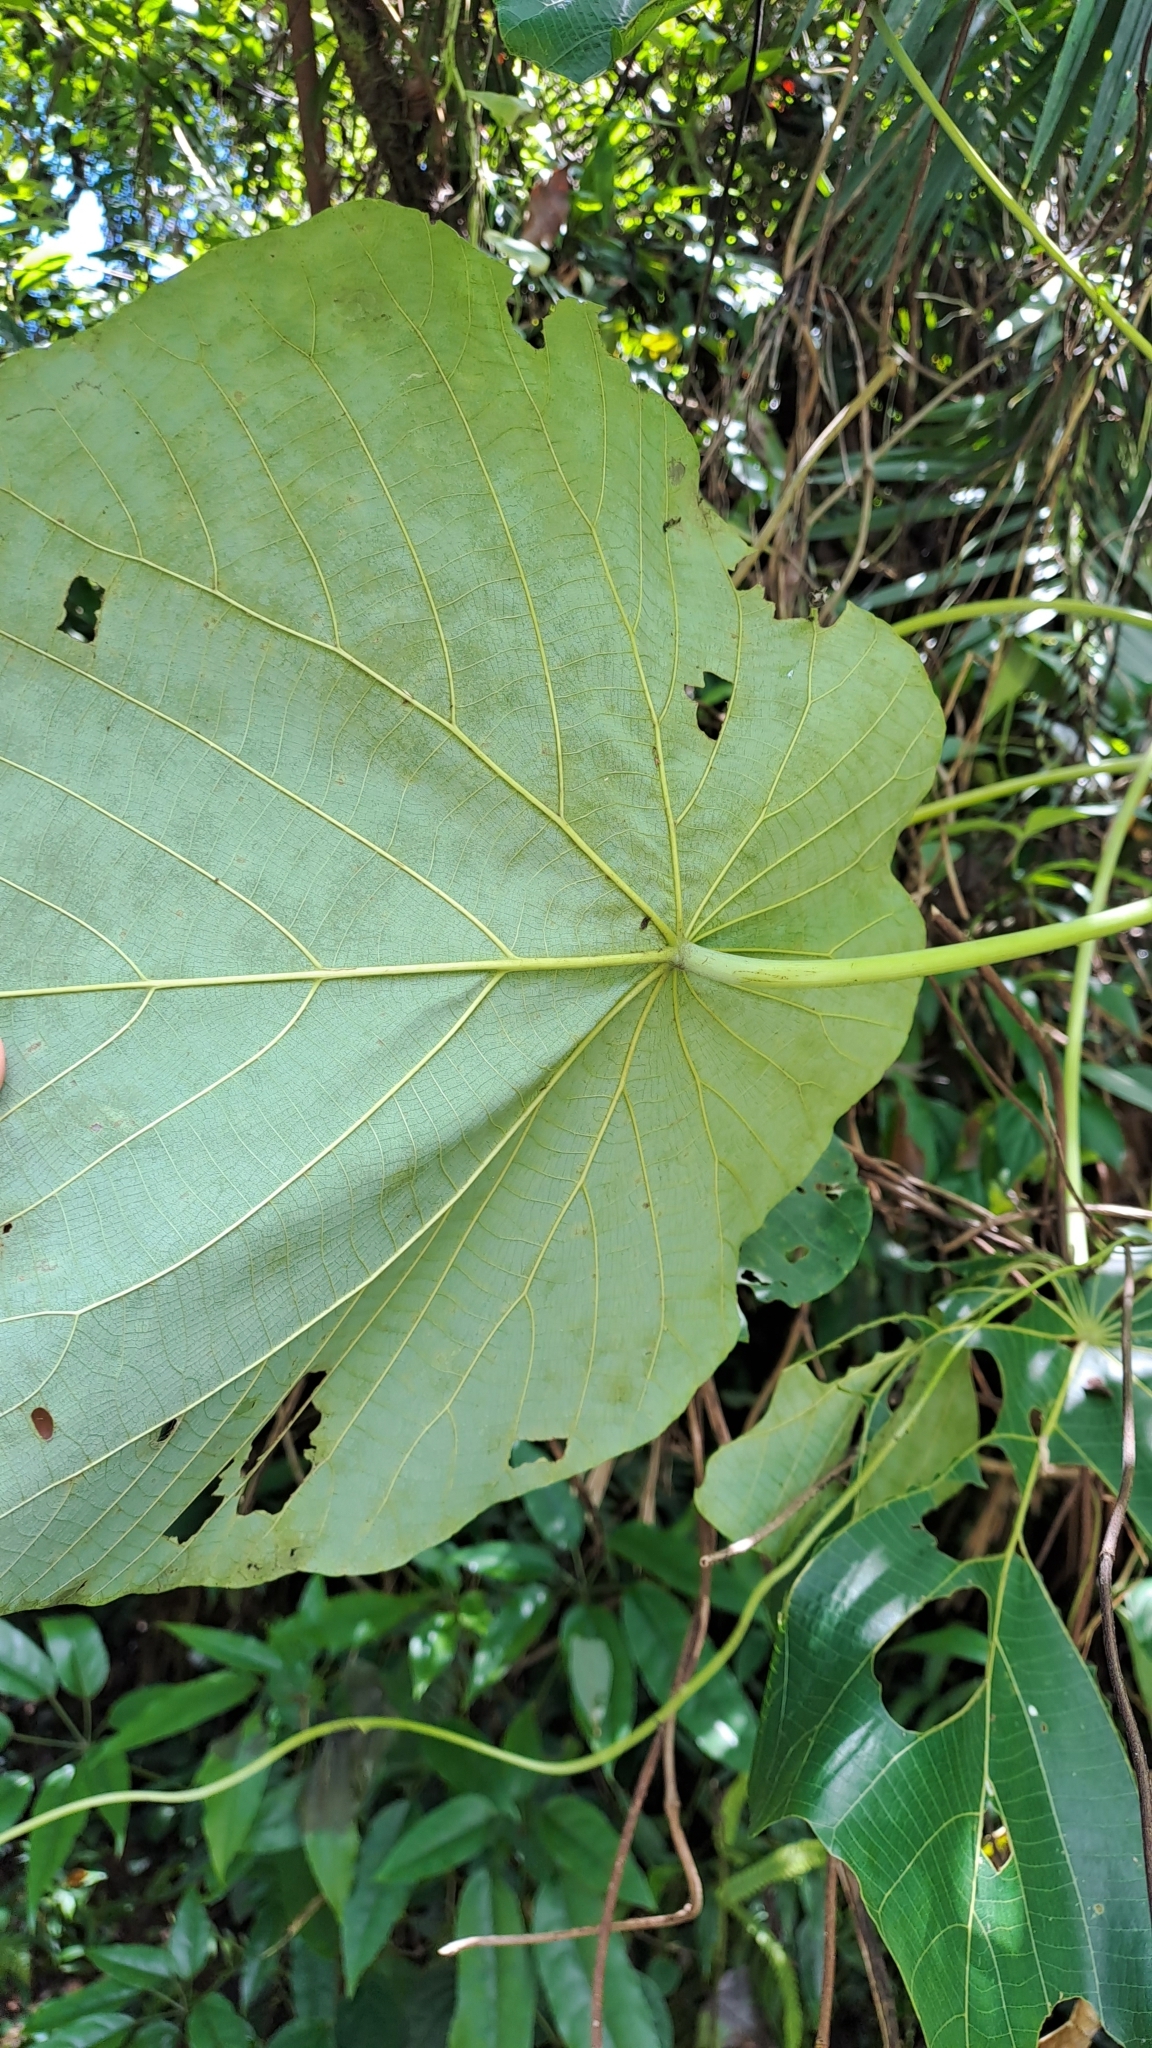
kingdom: Plantae
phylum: Tracheophyta
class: Magnoliopsida
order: Malpighiales
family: Euphorbiaceae
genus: Macaranga
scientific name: Macaranga tanarius
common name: Parasol leaf tree
